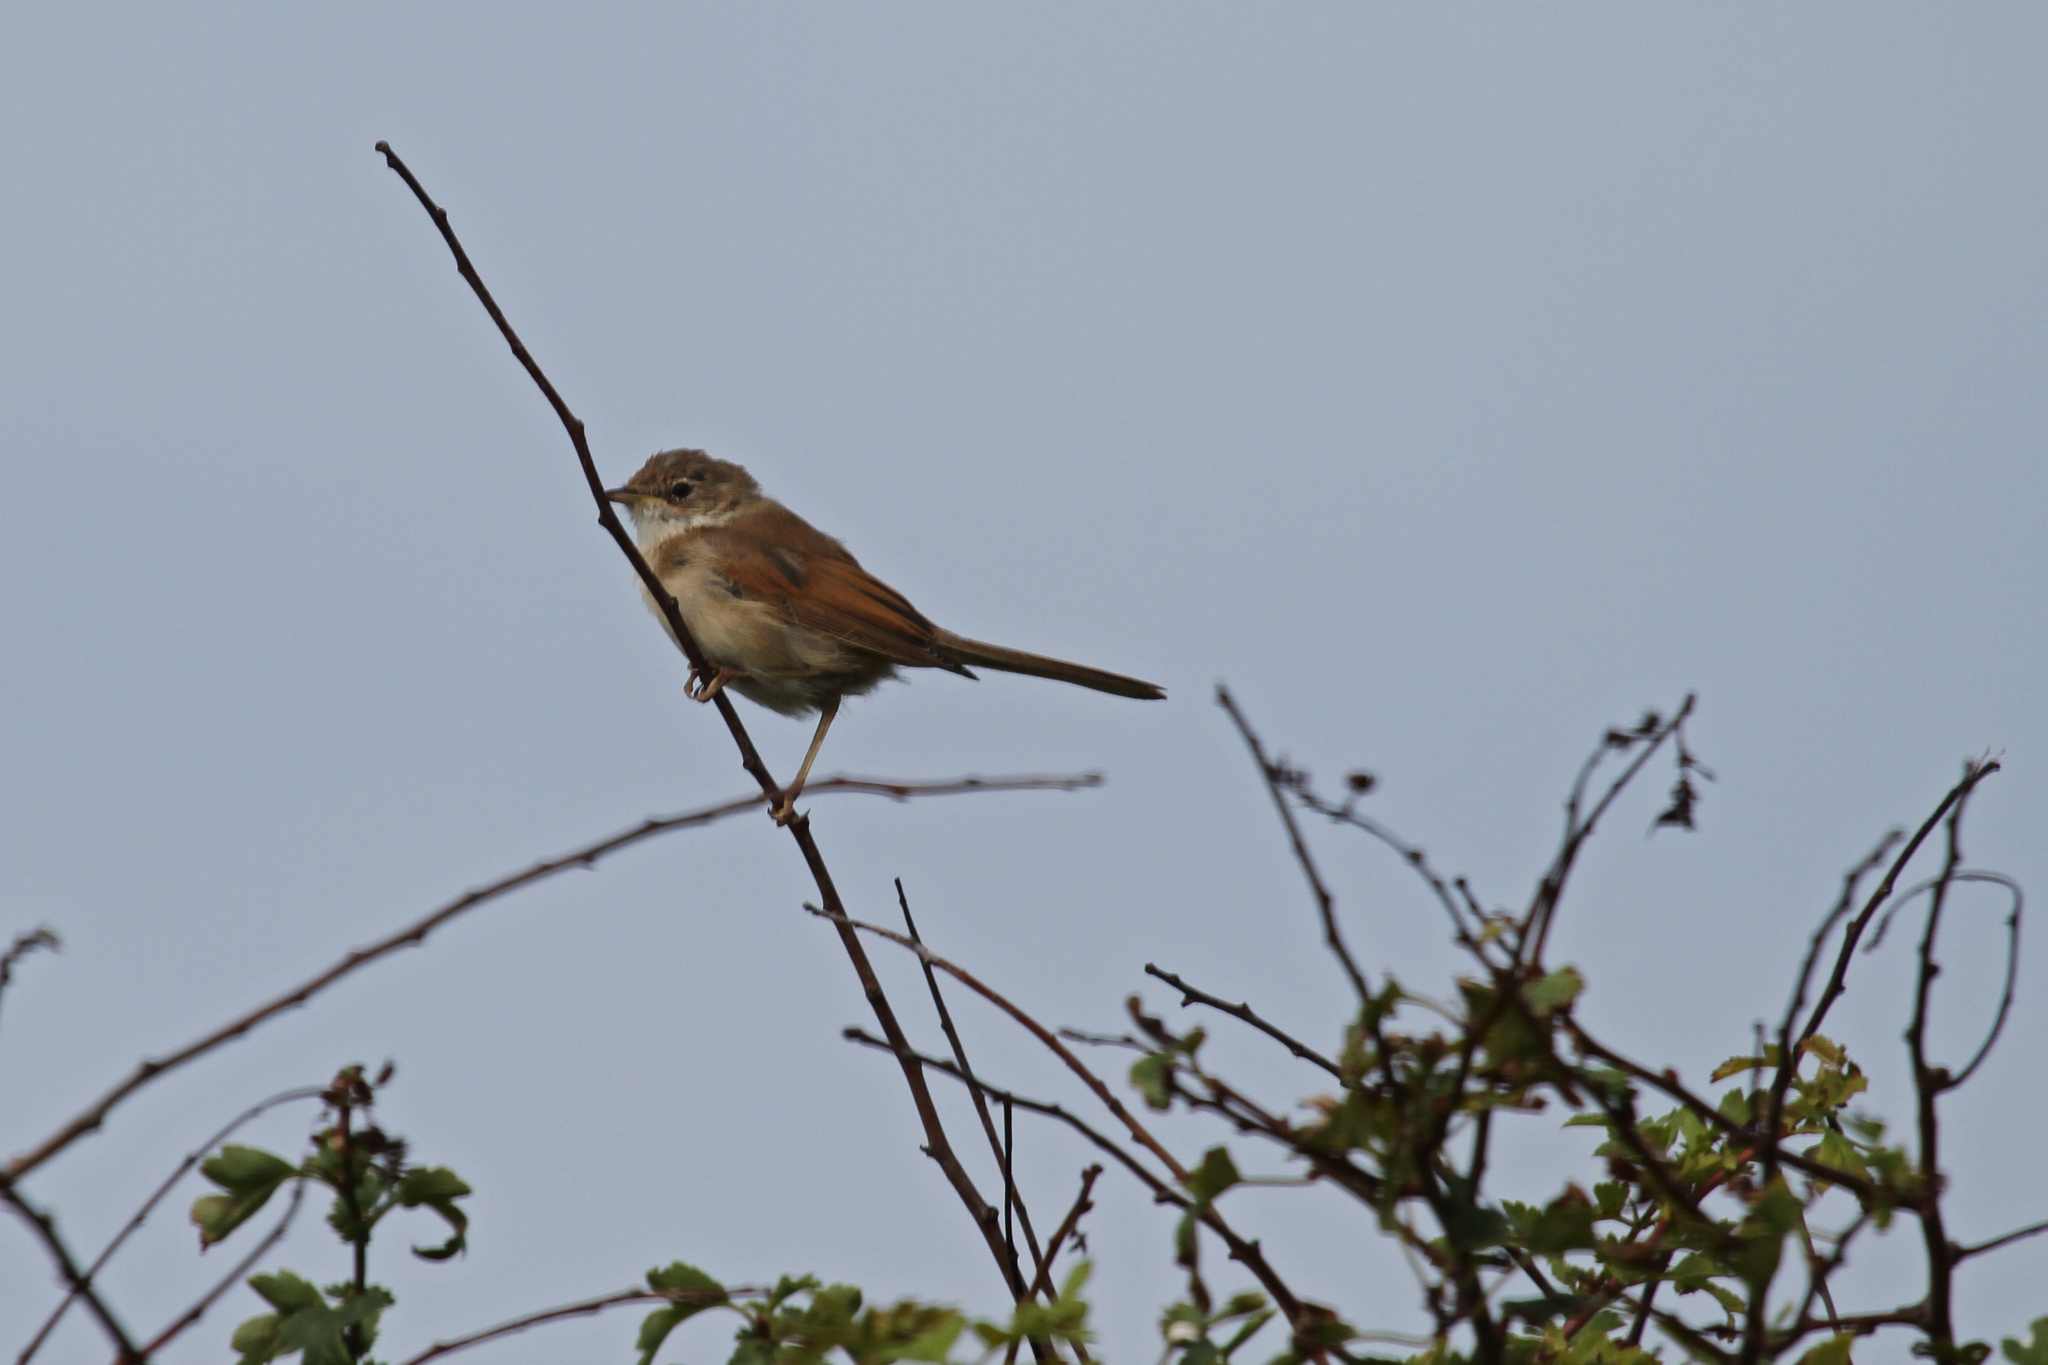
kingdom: Animalia
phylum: Chordata
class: Aves
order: Passeriformes
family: Sylviidae
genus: Sylvia
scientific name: Sylvia communis
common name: Common whitethroat
